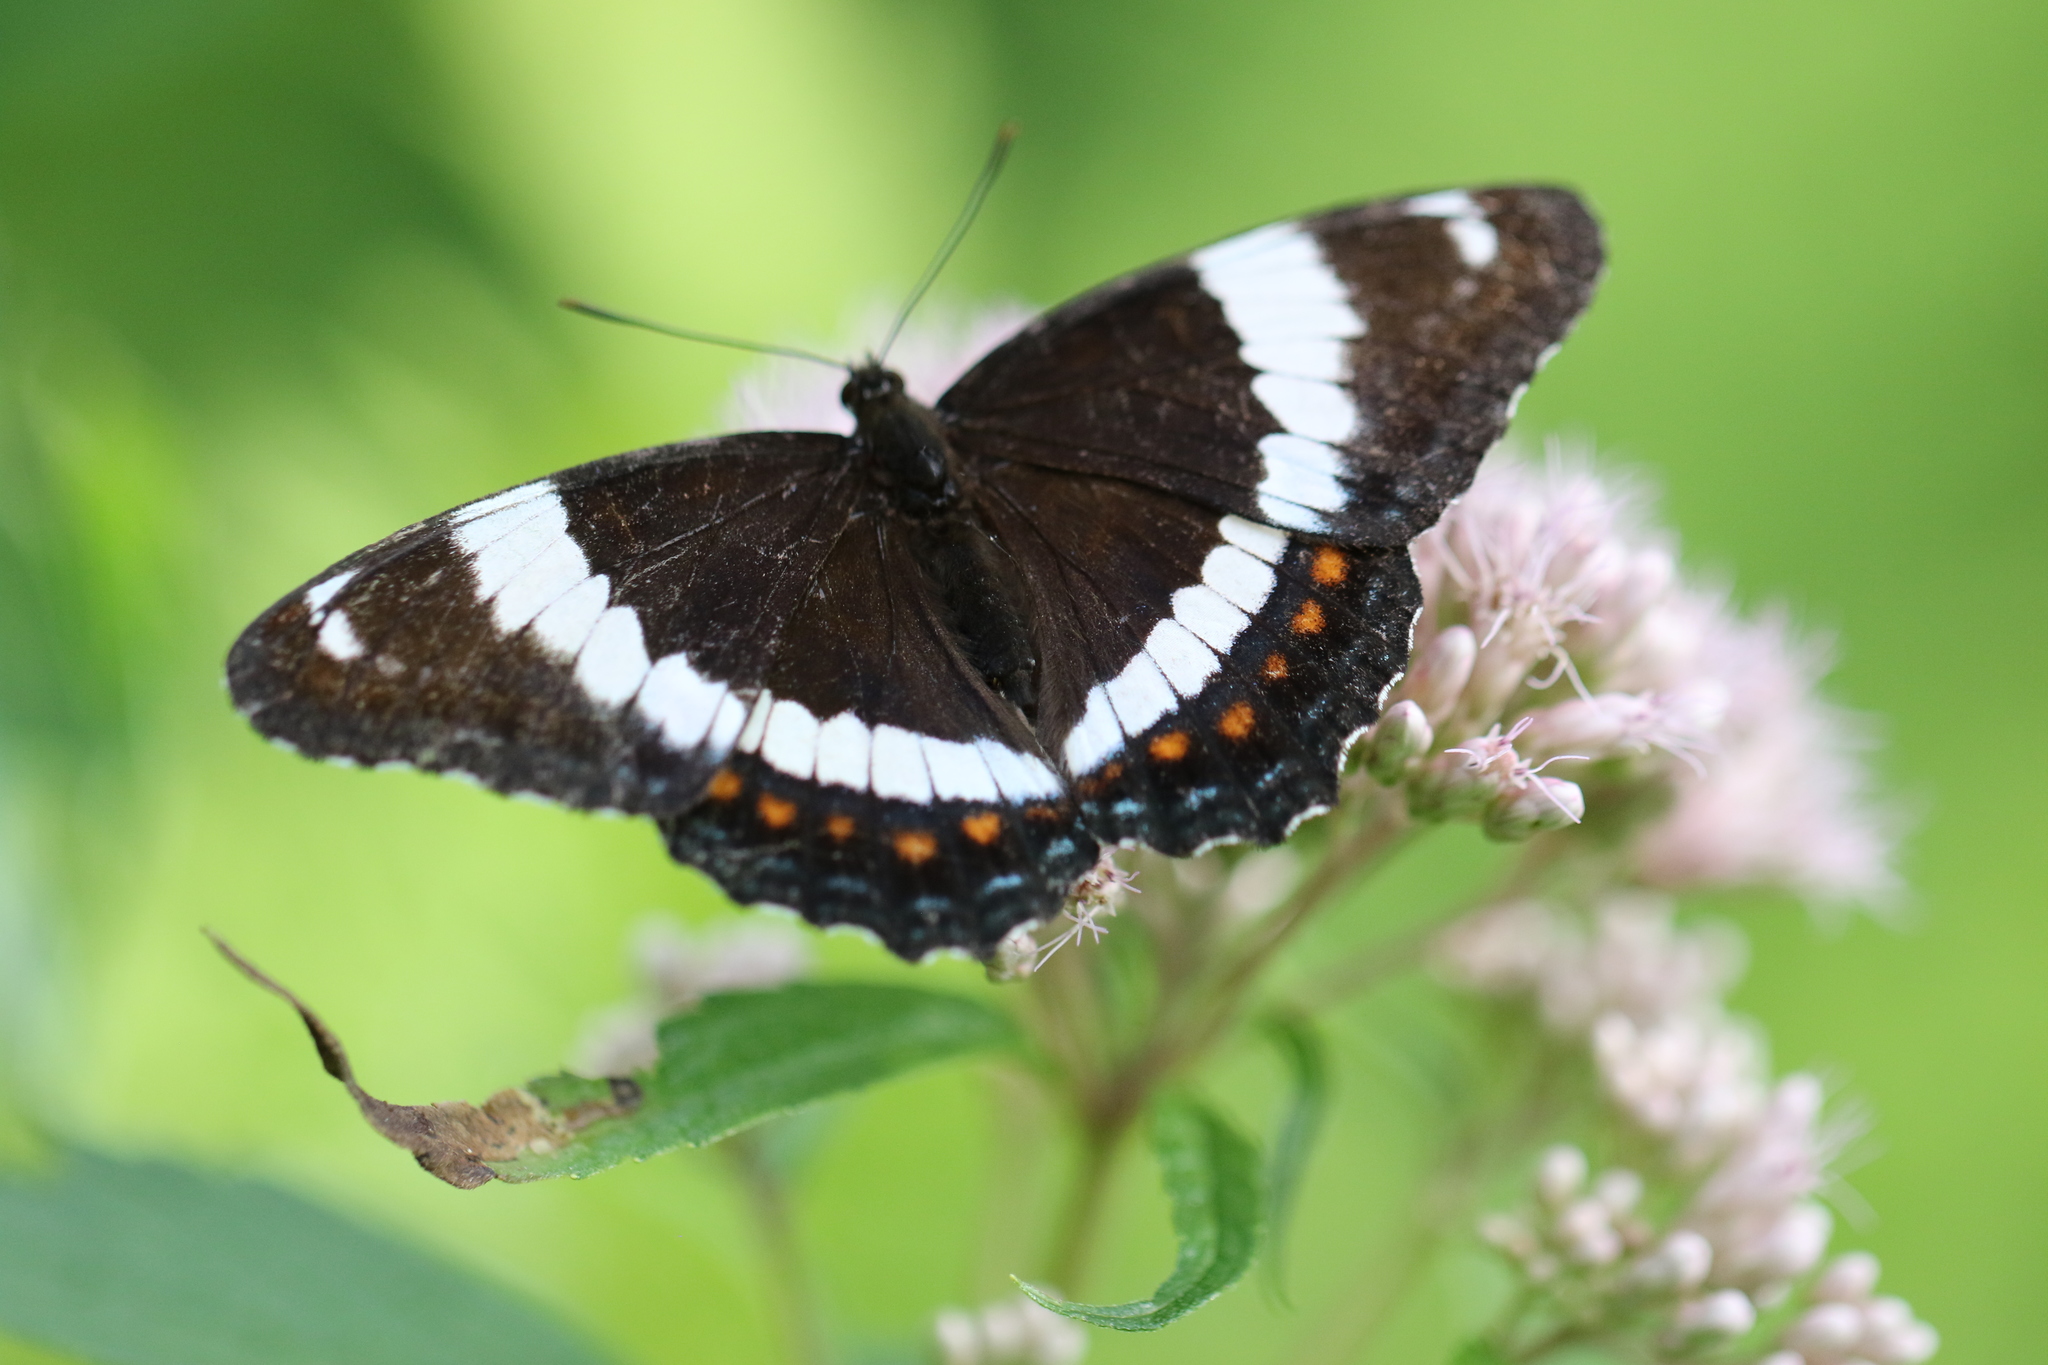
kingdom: Animalia
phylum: Arthropoda
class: Insecta
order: Lepidoptera
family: Nymphalidae
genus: Limenitis
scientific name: Limenitis arthemis
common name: Red-spotted admiral
